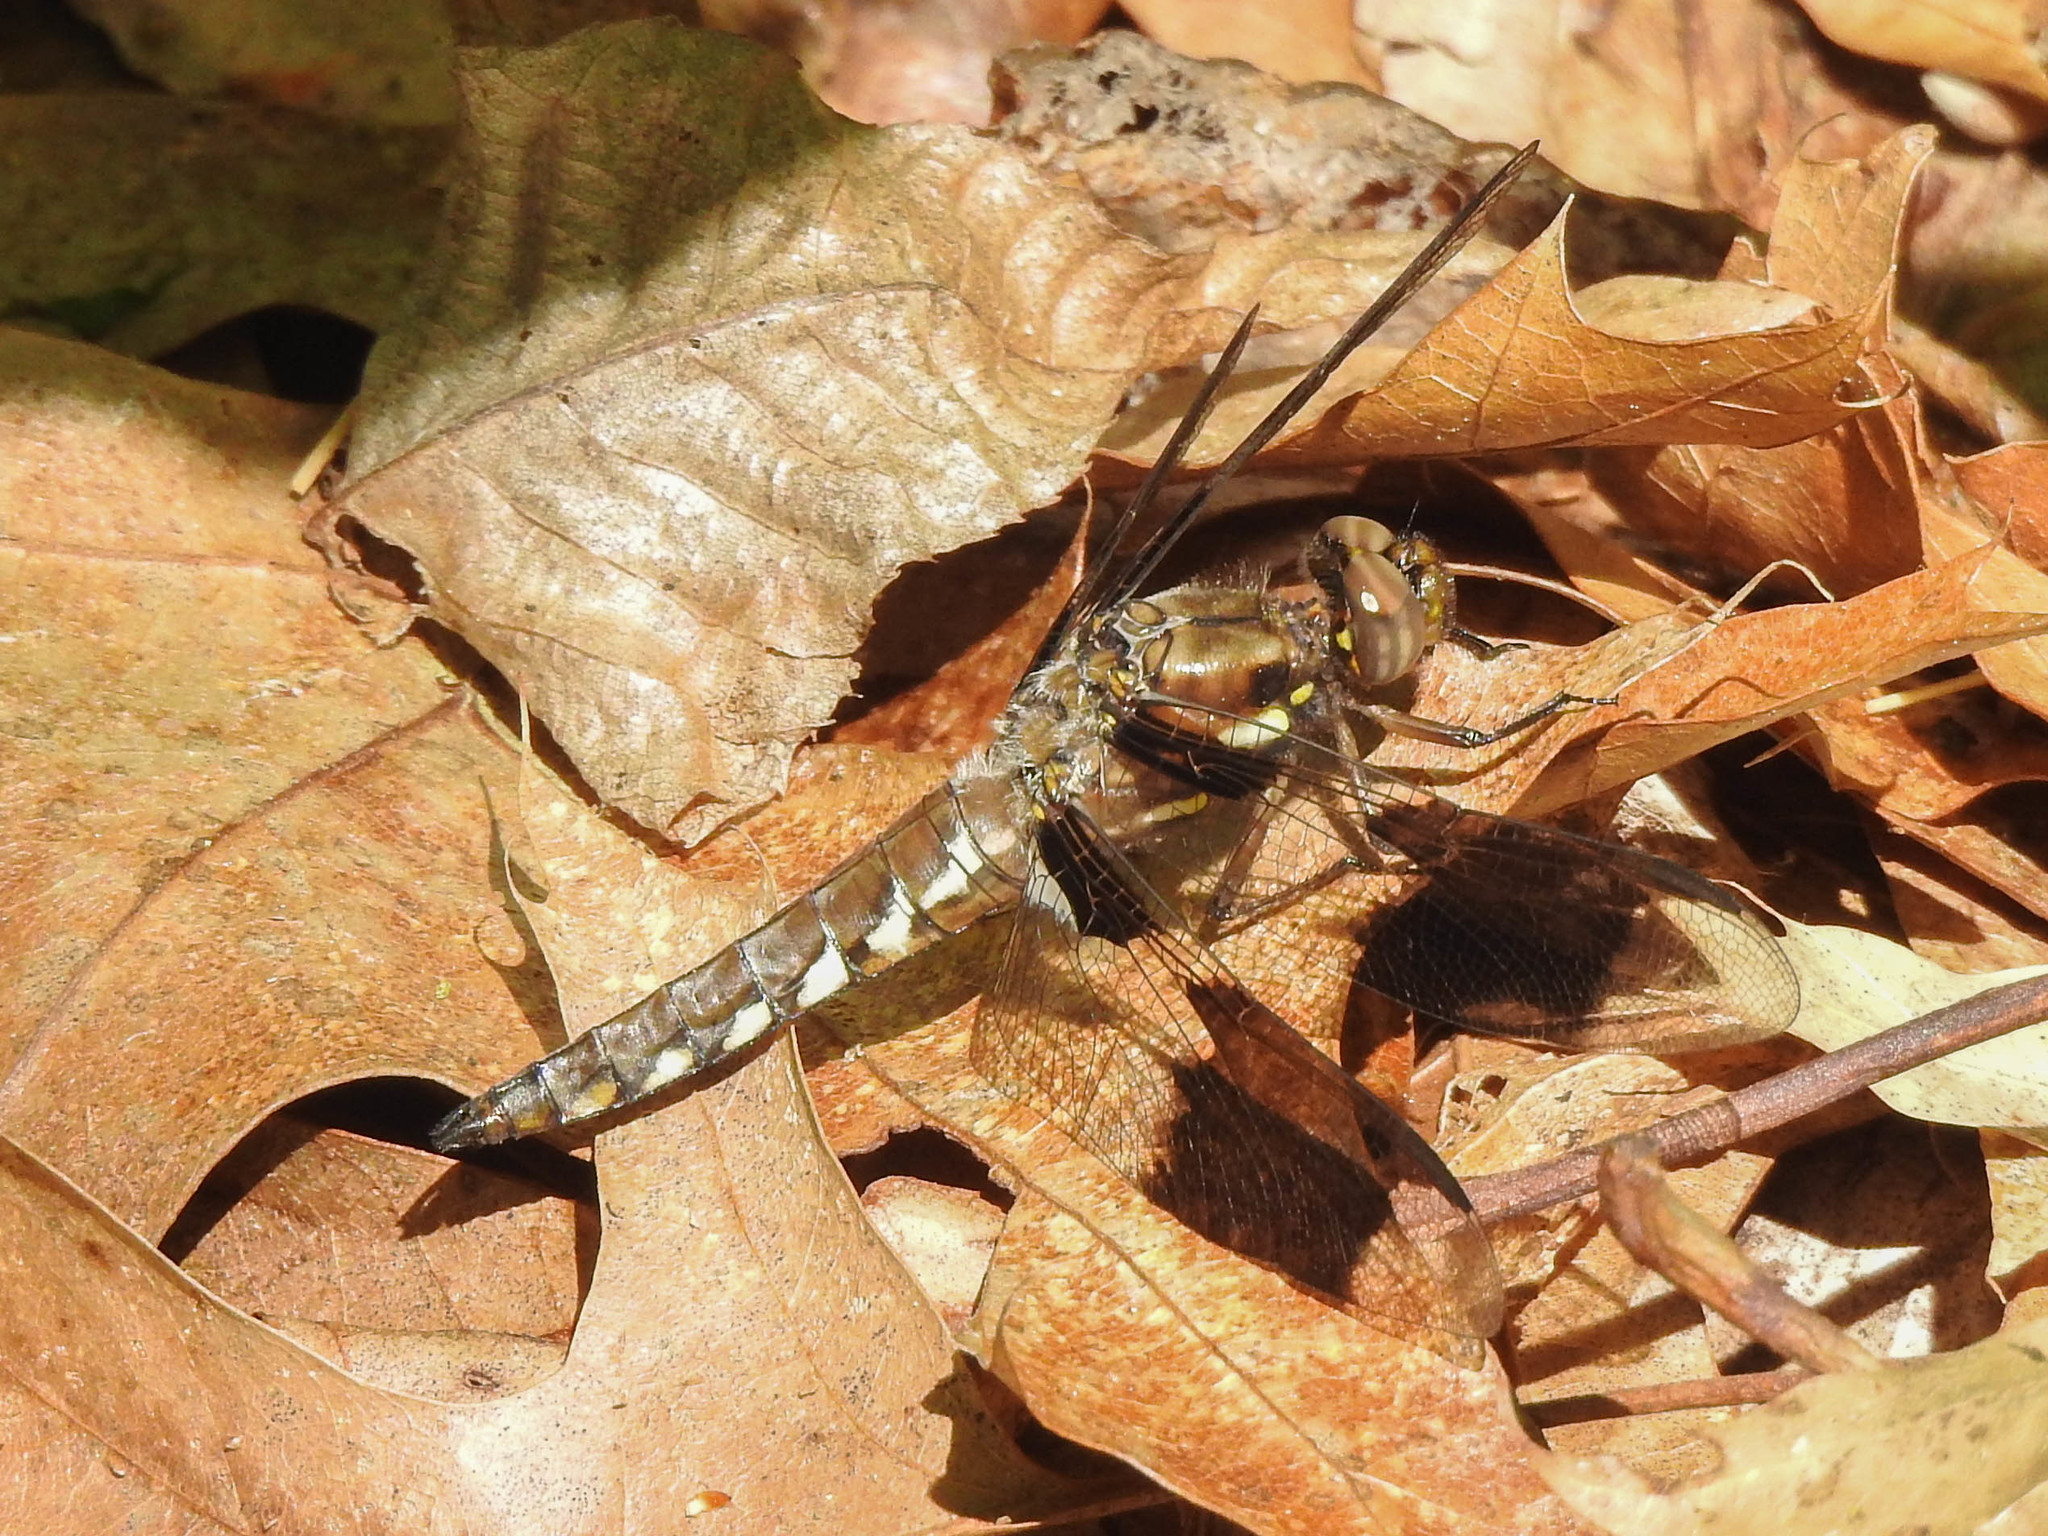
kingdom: Animalia
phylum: Arthropoda
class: Insecta
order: Odonata
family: Libellulidae
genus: Plathemis
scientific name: Plathemis lydia
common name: Common whitetail
